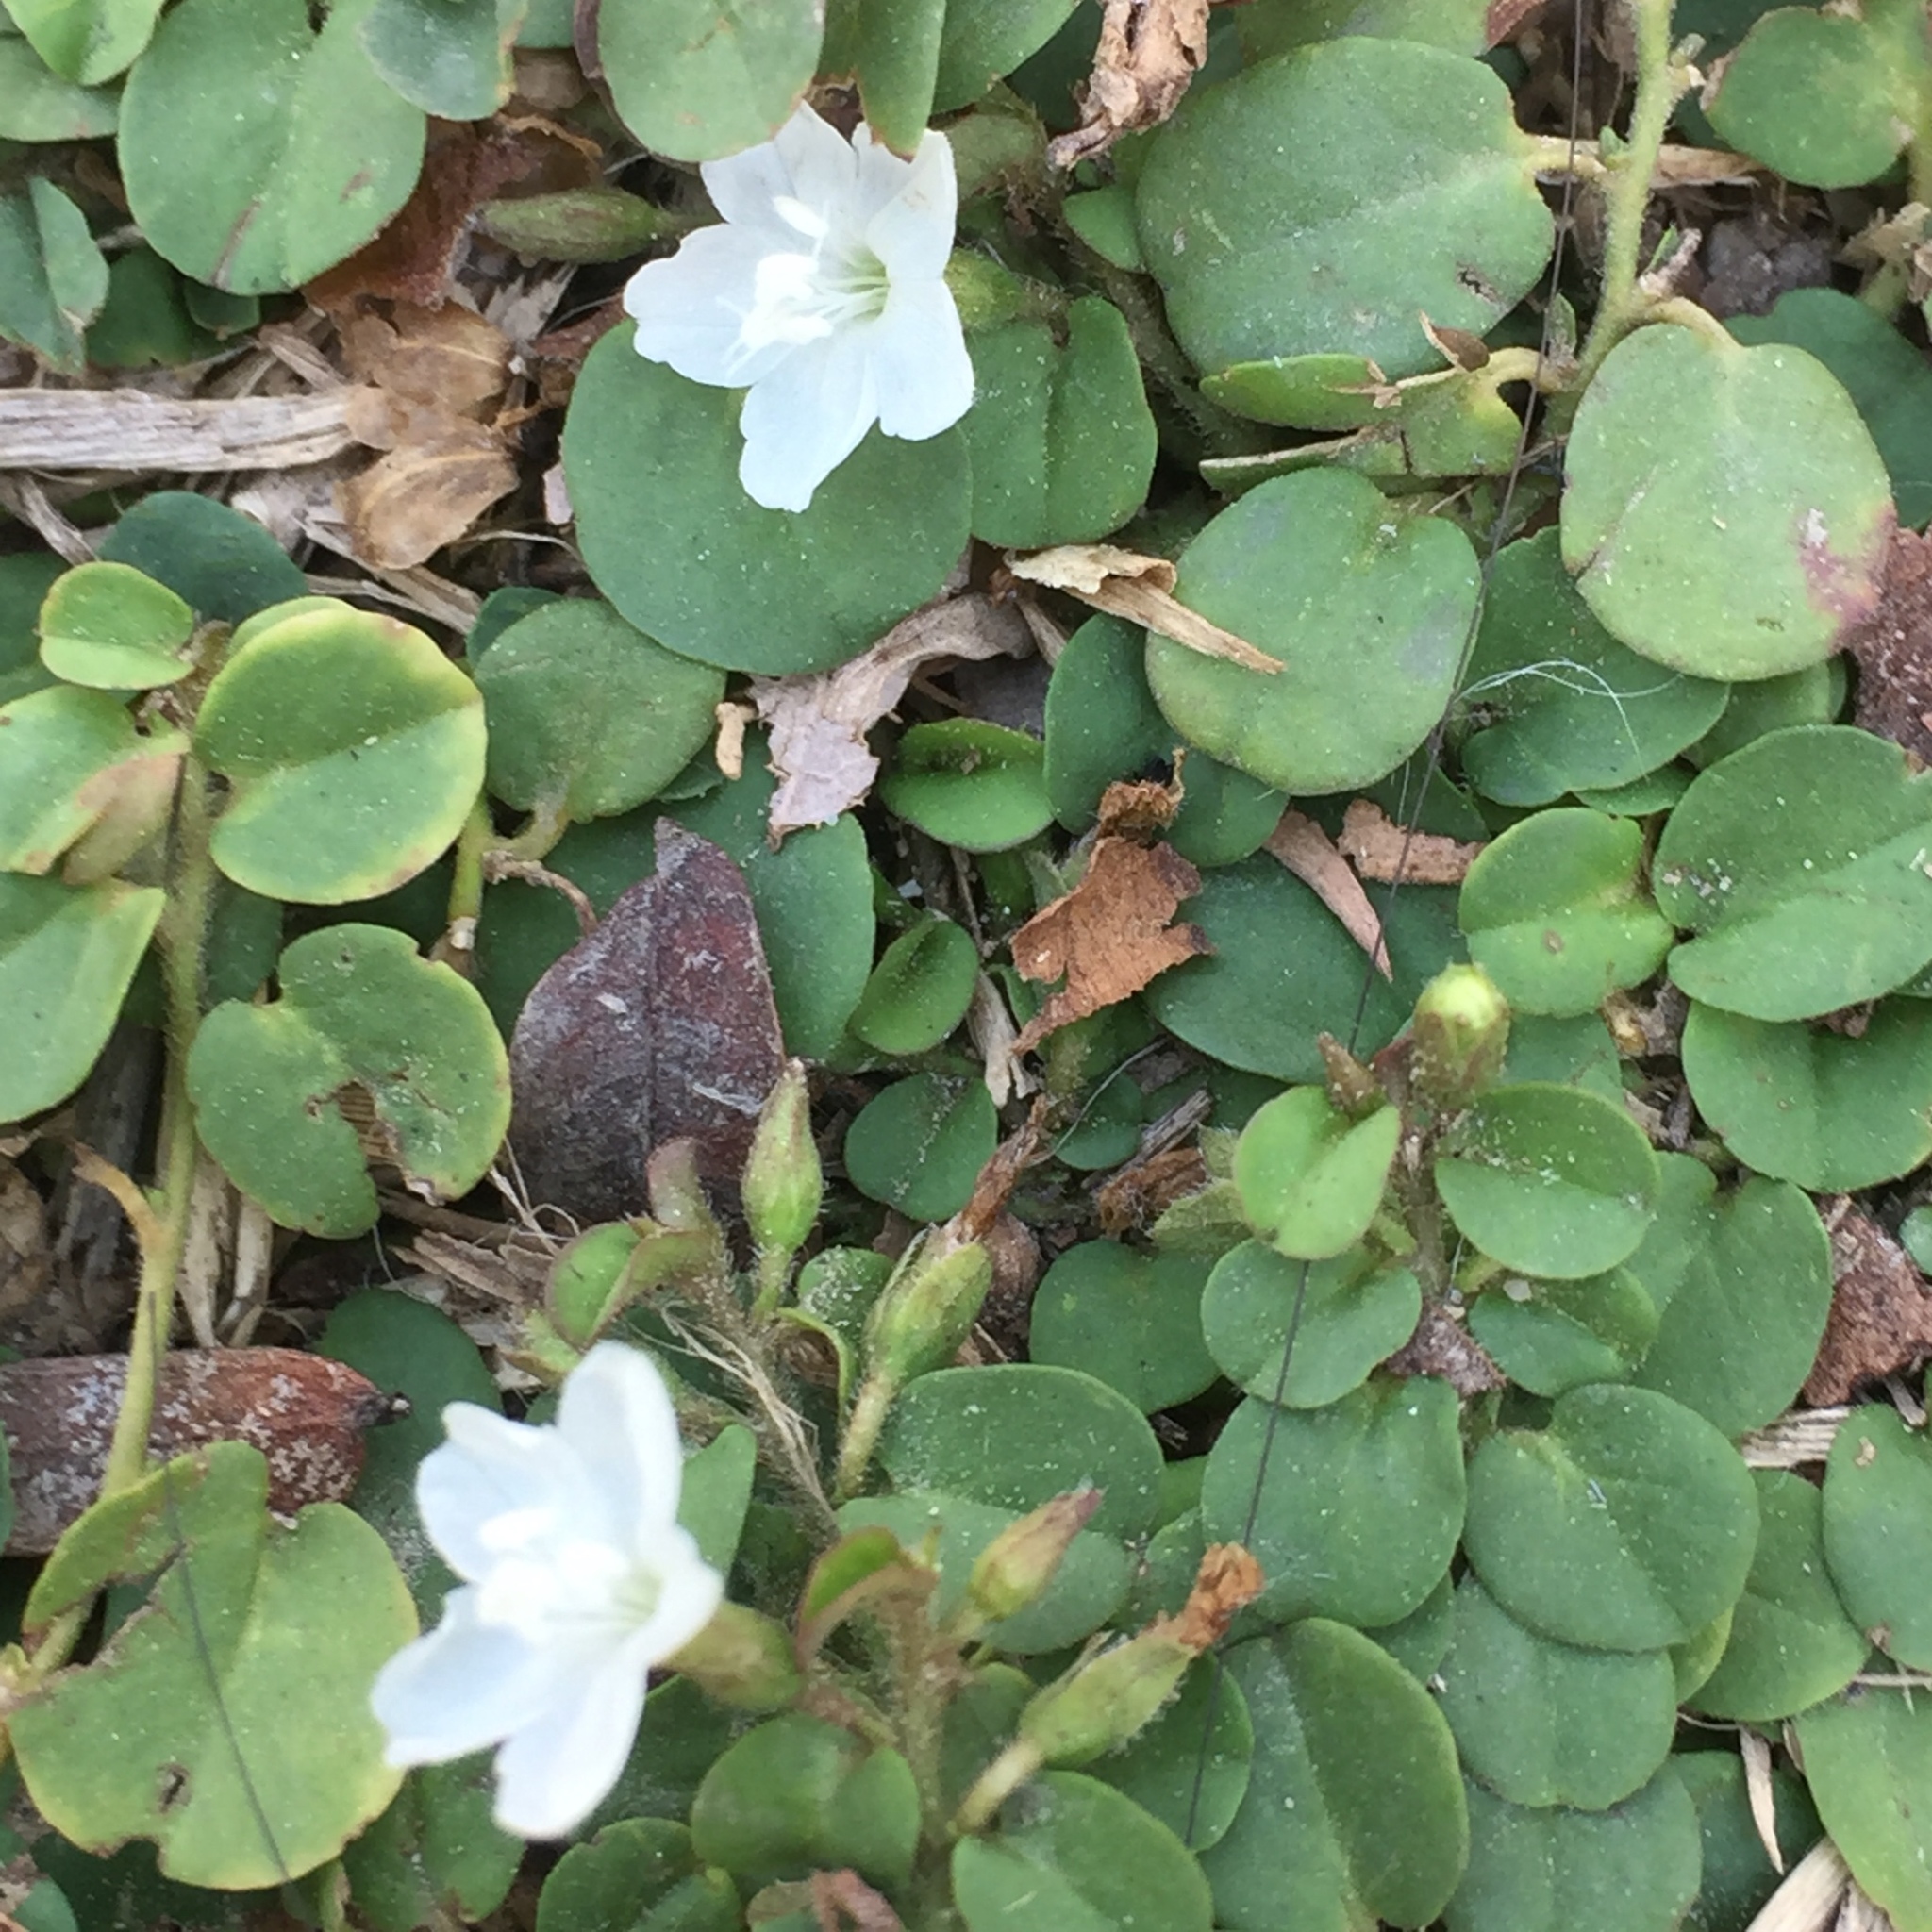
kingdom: Plantae
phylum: Tracheophyta
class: Magnoliopsida
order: Solanales
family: Convolvulaceae
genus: Evolvulus
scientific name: Evolvulus nummularius
